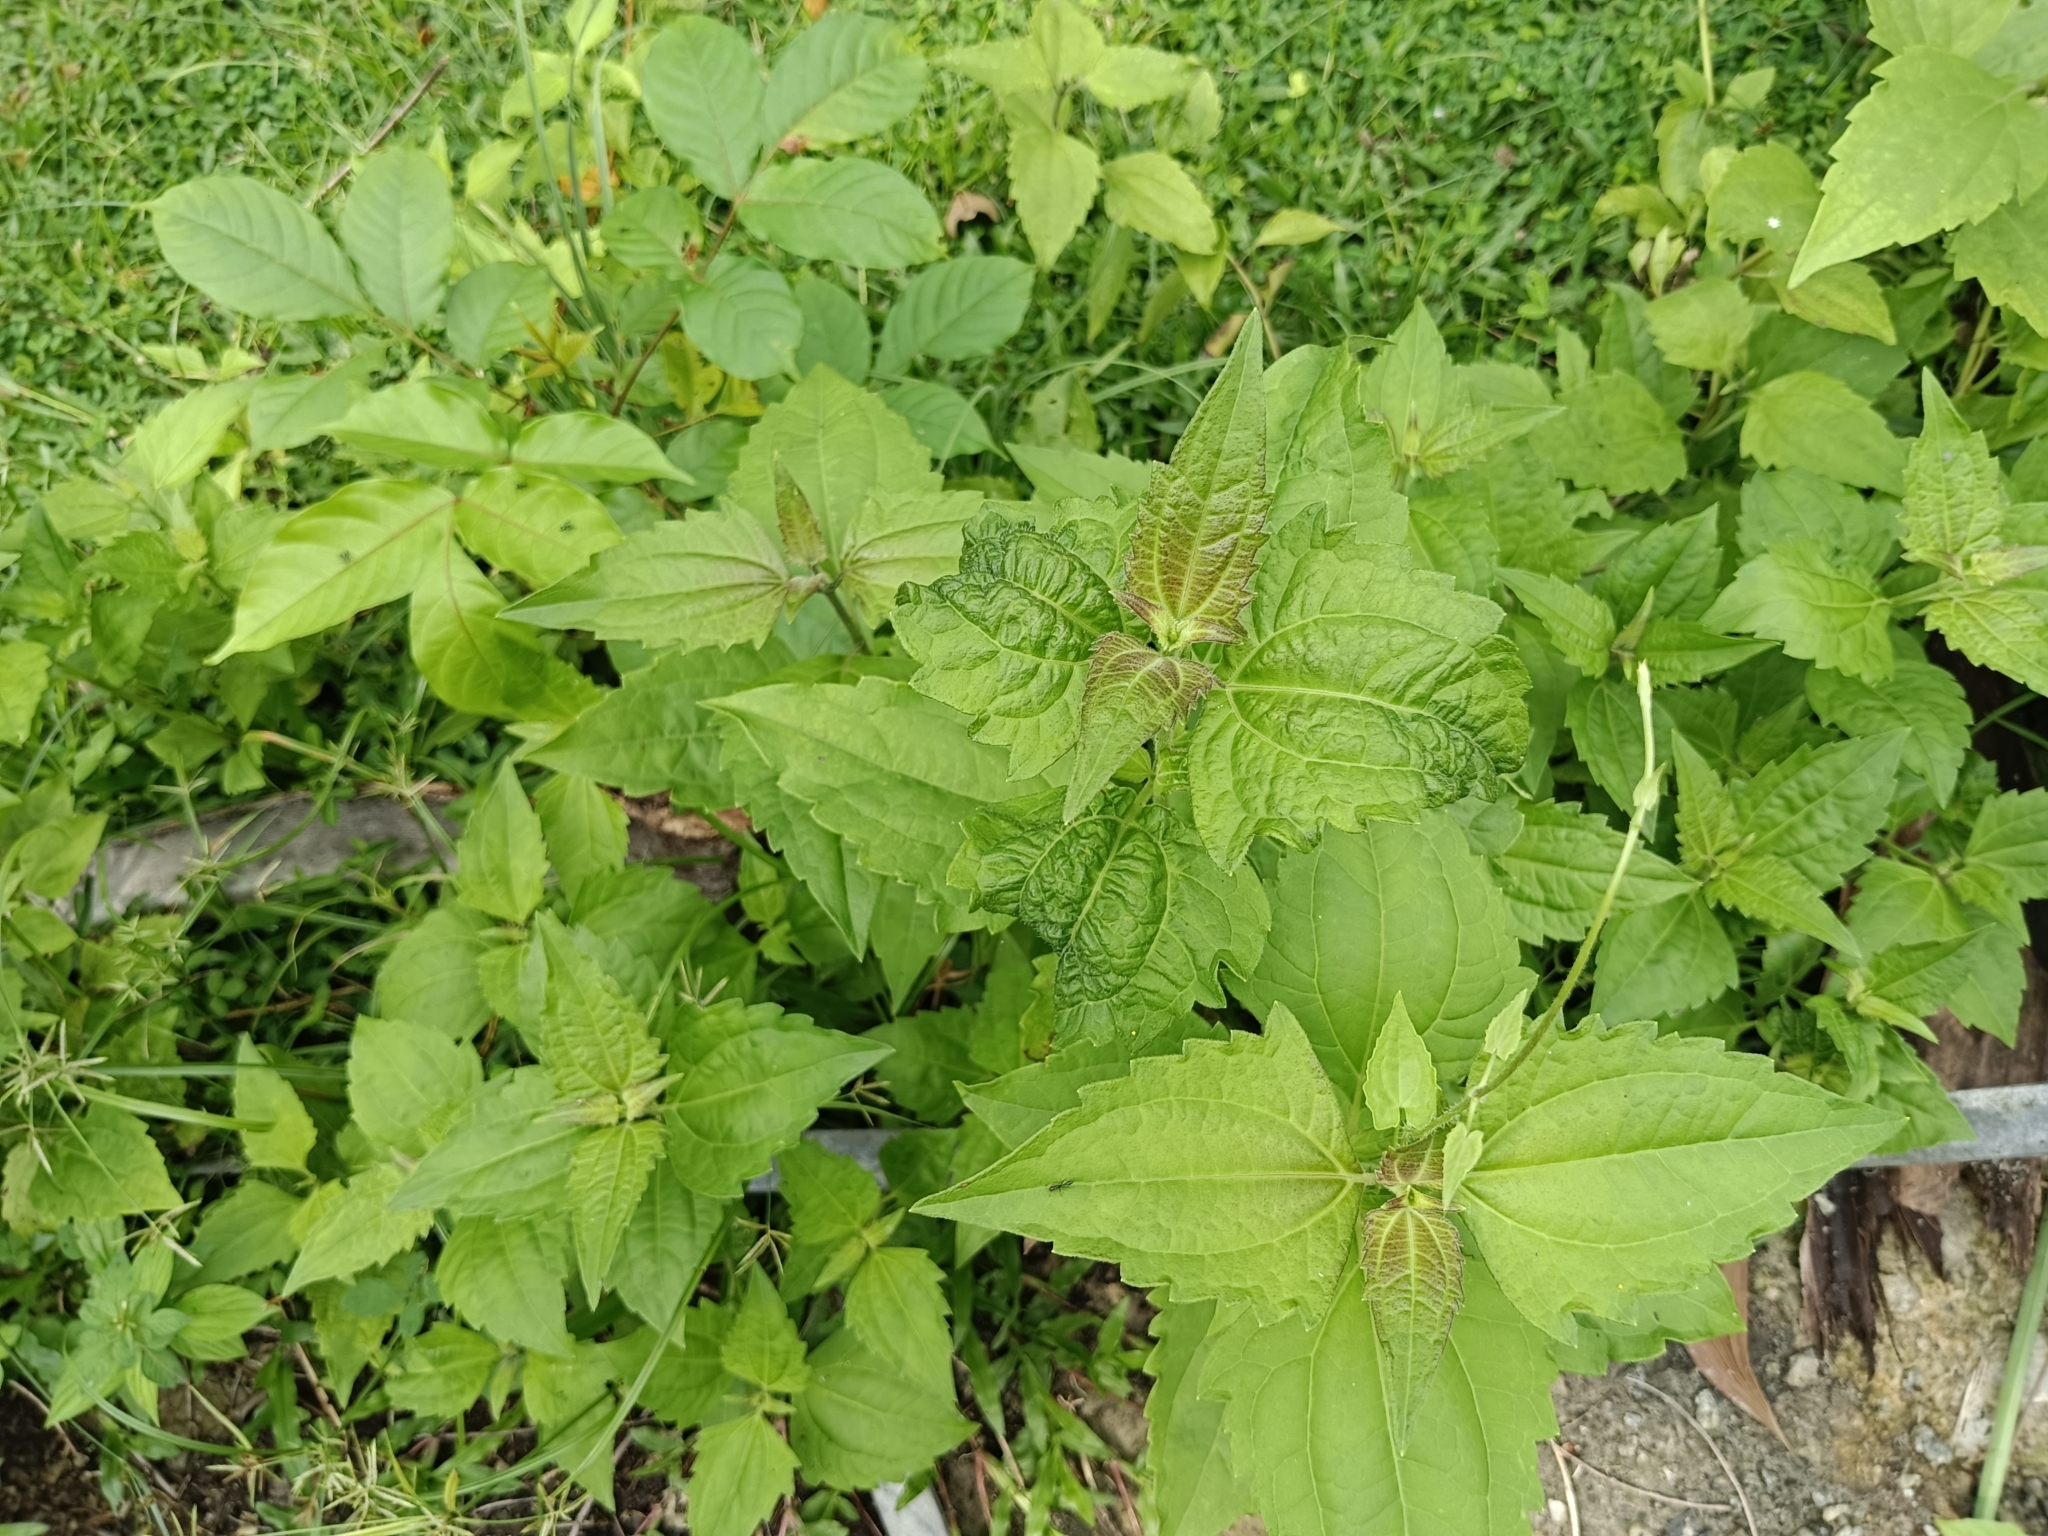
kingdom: Plantae
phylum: Tracheophyta
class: Magnoliopsida
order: Asterales
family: Asteraceae
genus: Chromolaena
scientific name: Chromolaena odorata
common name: Siamweed
